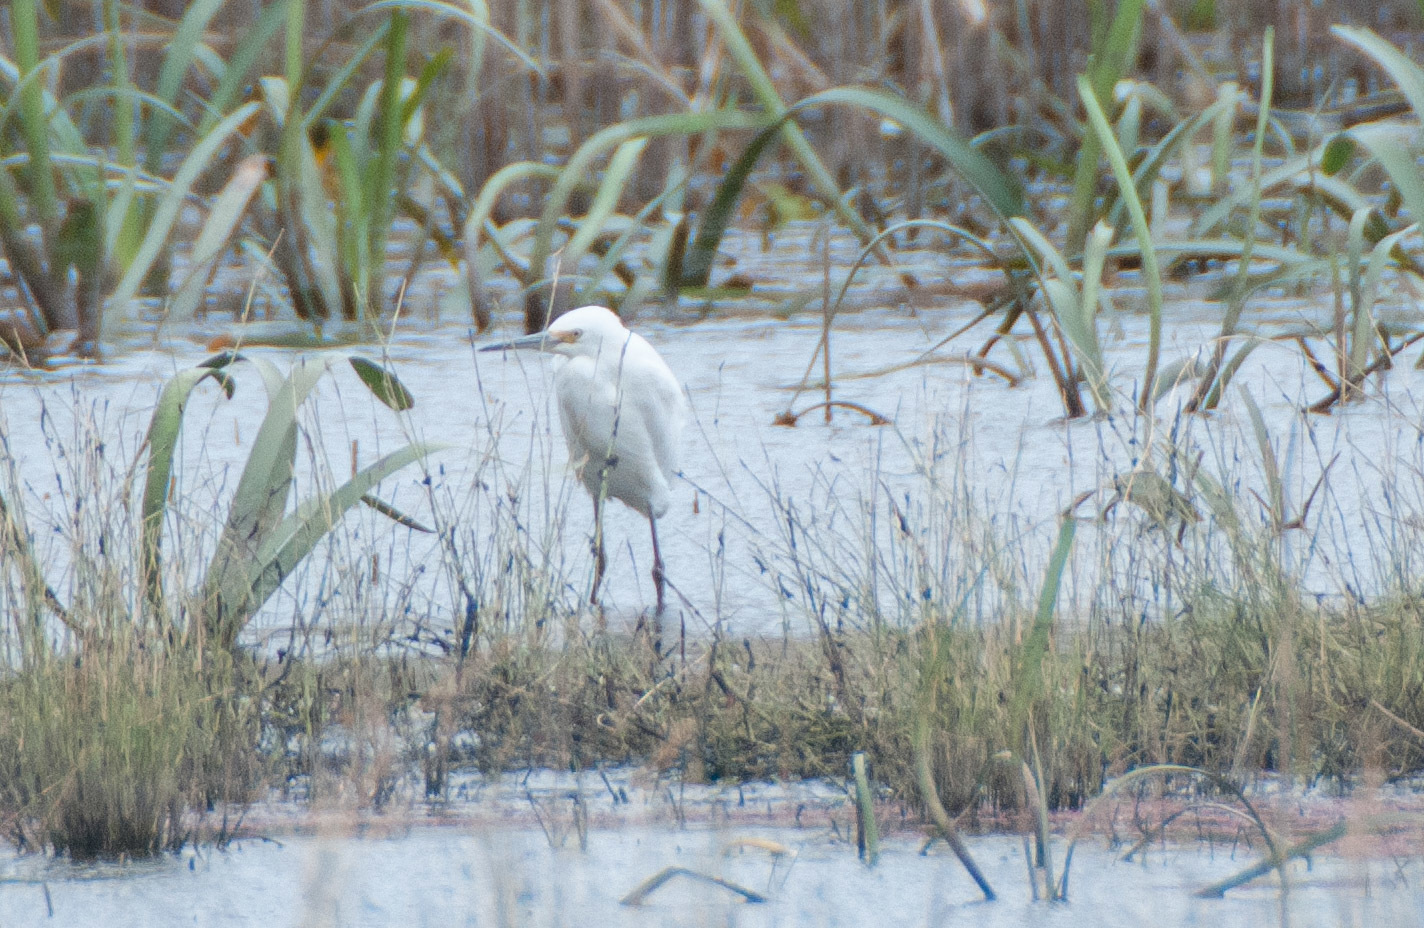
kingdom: Animalia
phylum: Chordata
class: Aves
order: Pelecaniformes
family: Ardeidae
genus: Egretta
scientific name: Egretta garzetta
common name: Little egret
